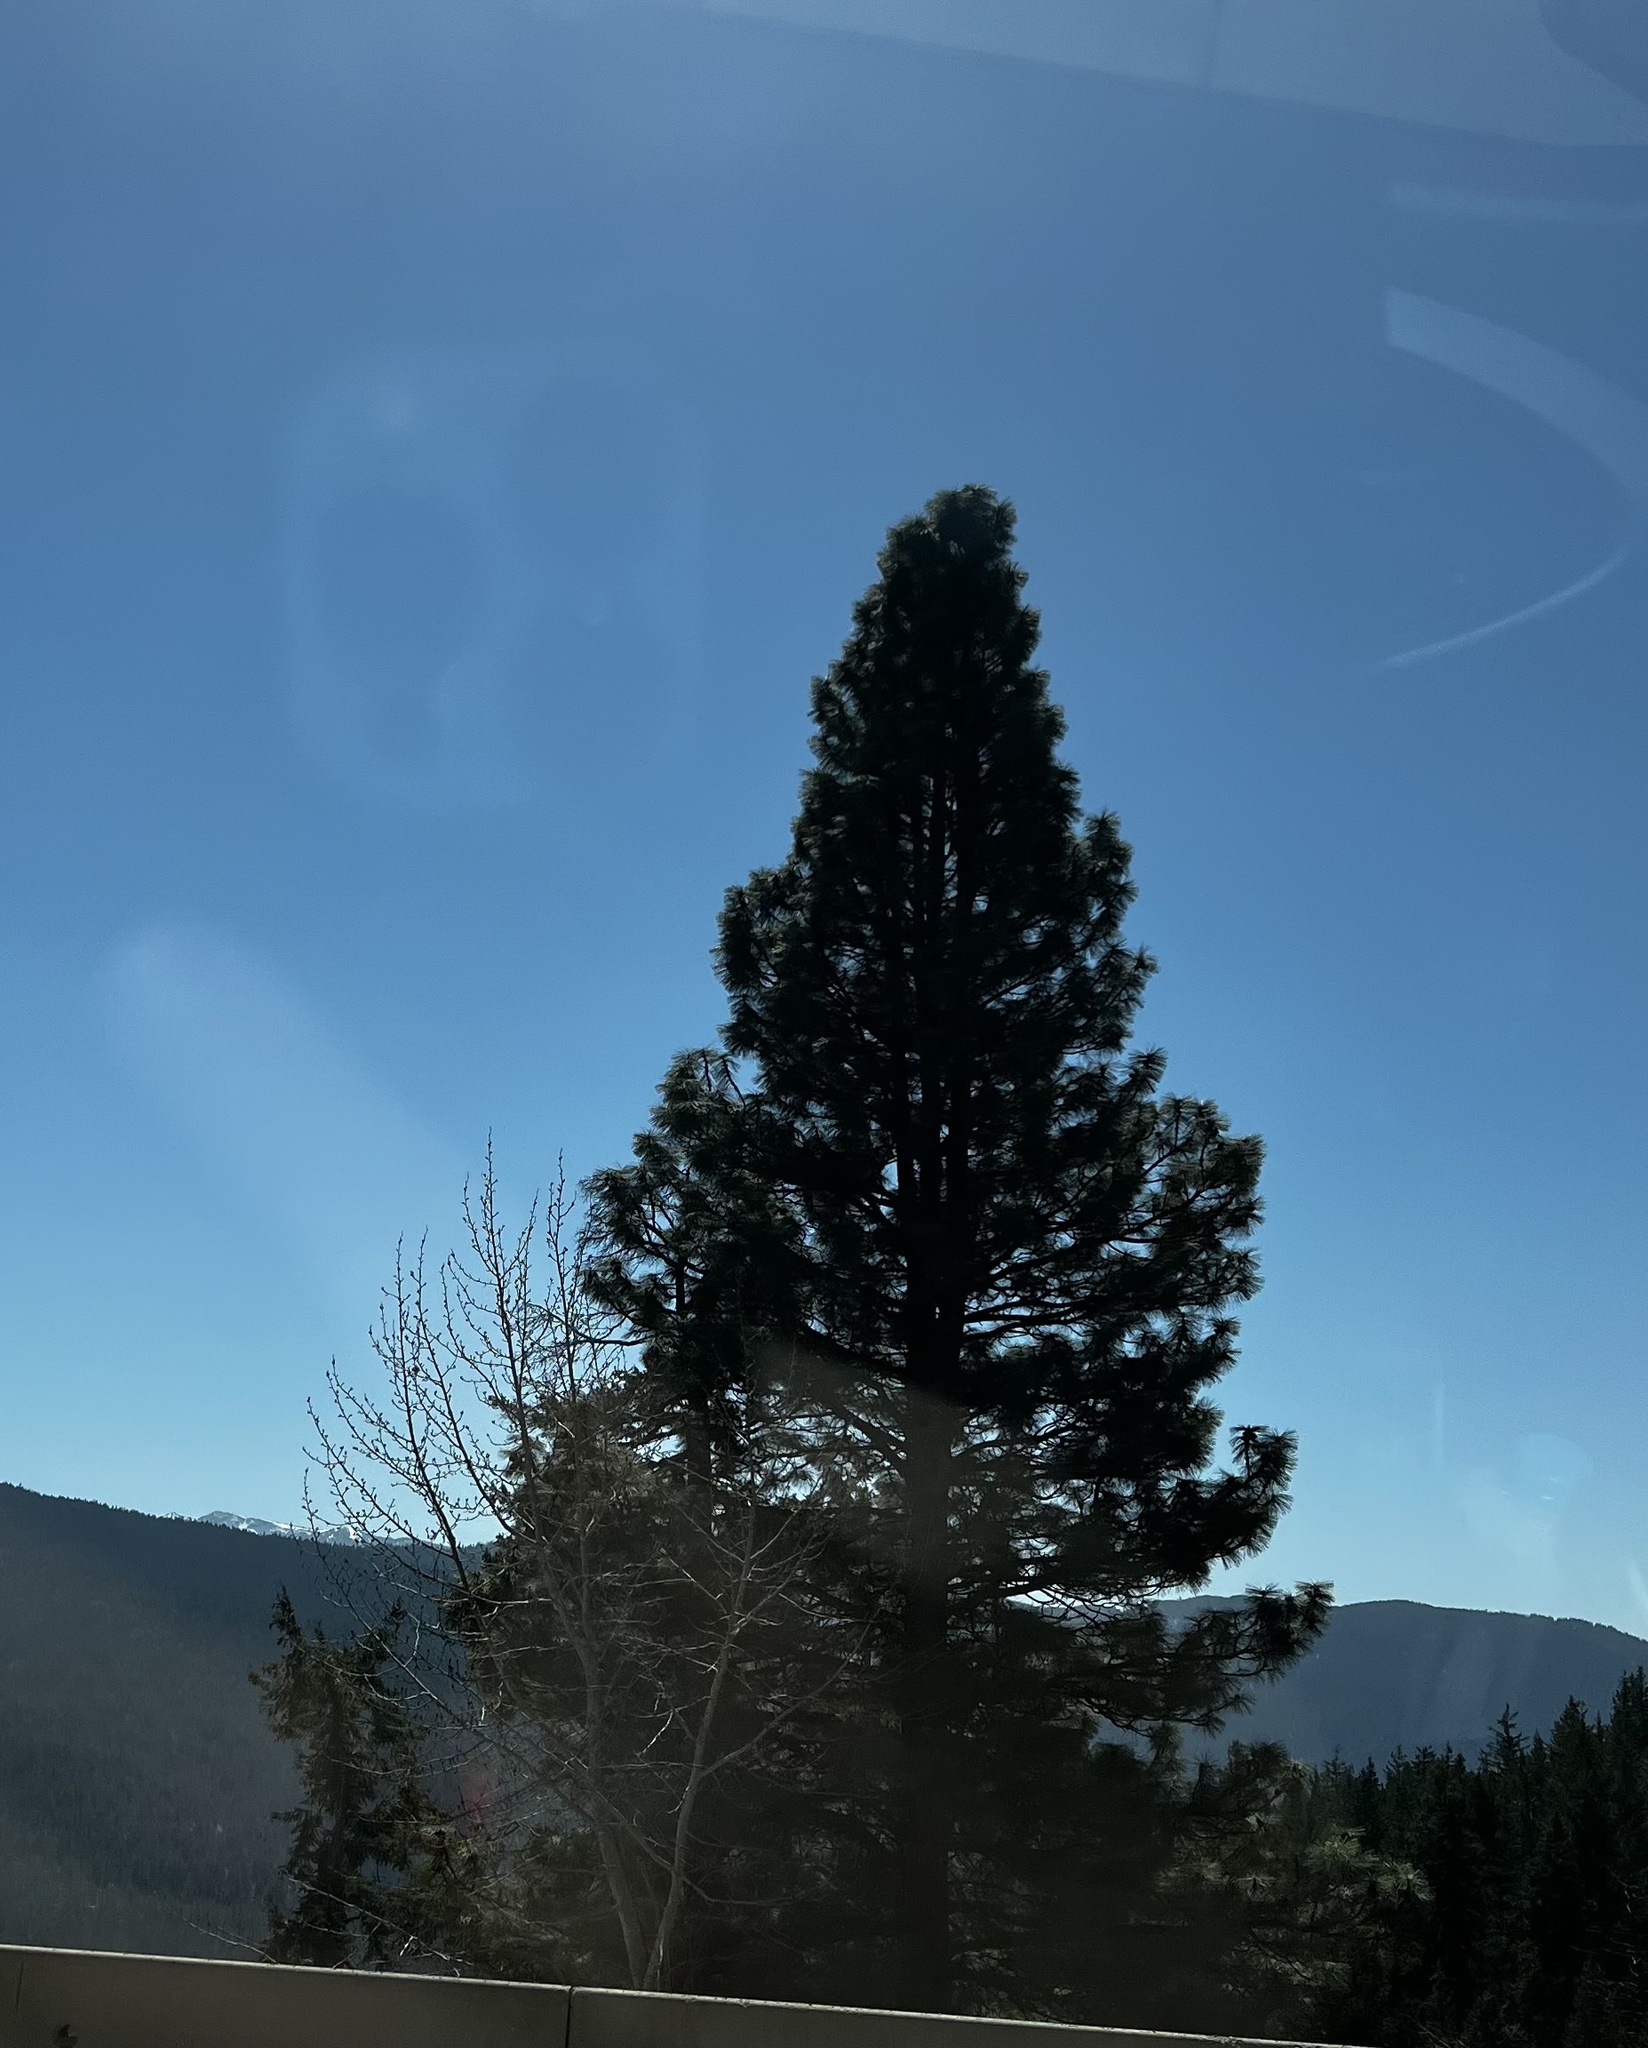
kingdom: Plantae
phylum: Tracheophyta
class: Pinopsida
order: Pinales
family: Pinaceae
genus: Pinus
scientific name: Pinus ponderosa
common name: Western yellow-pine
